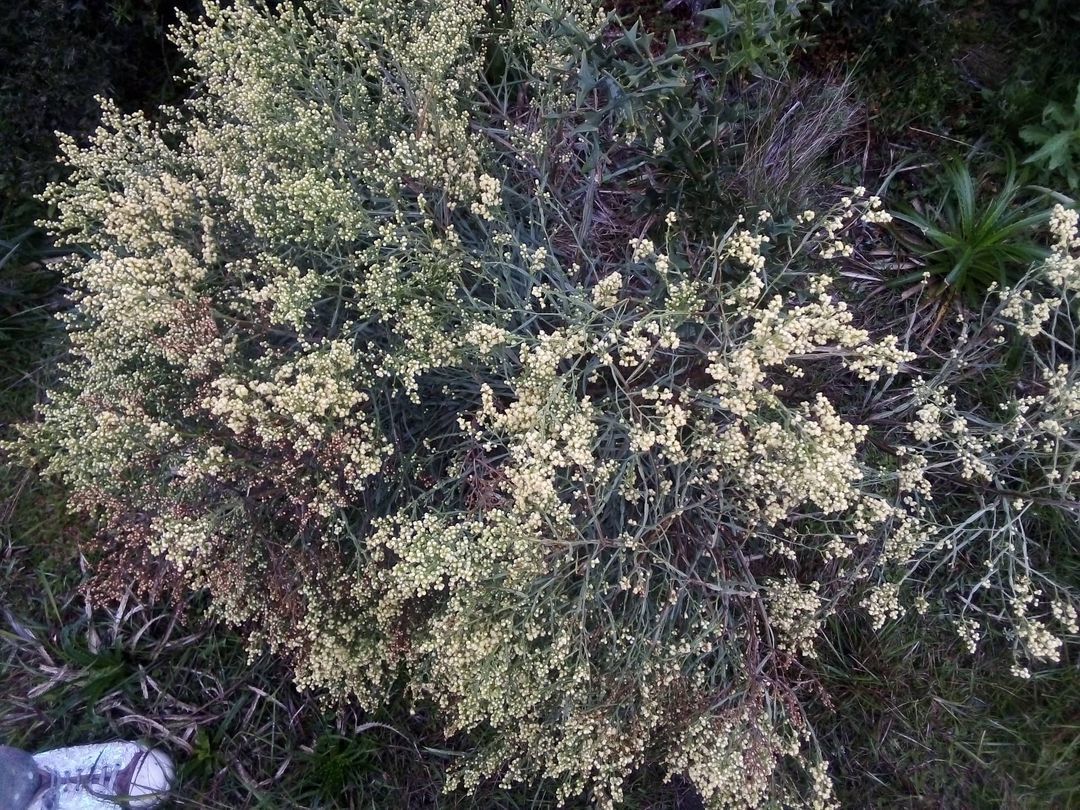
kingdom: Plantae
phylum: Tracheophyta
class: Magnoliopsida
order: Asterales
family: Asteraceae
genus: Baccharis
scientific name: Baccharis articulata
